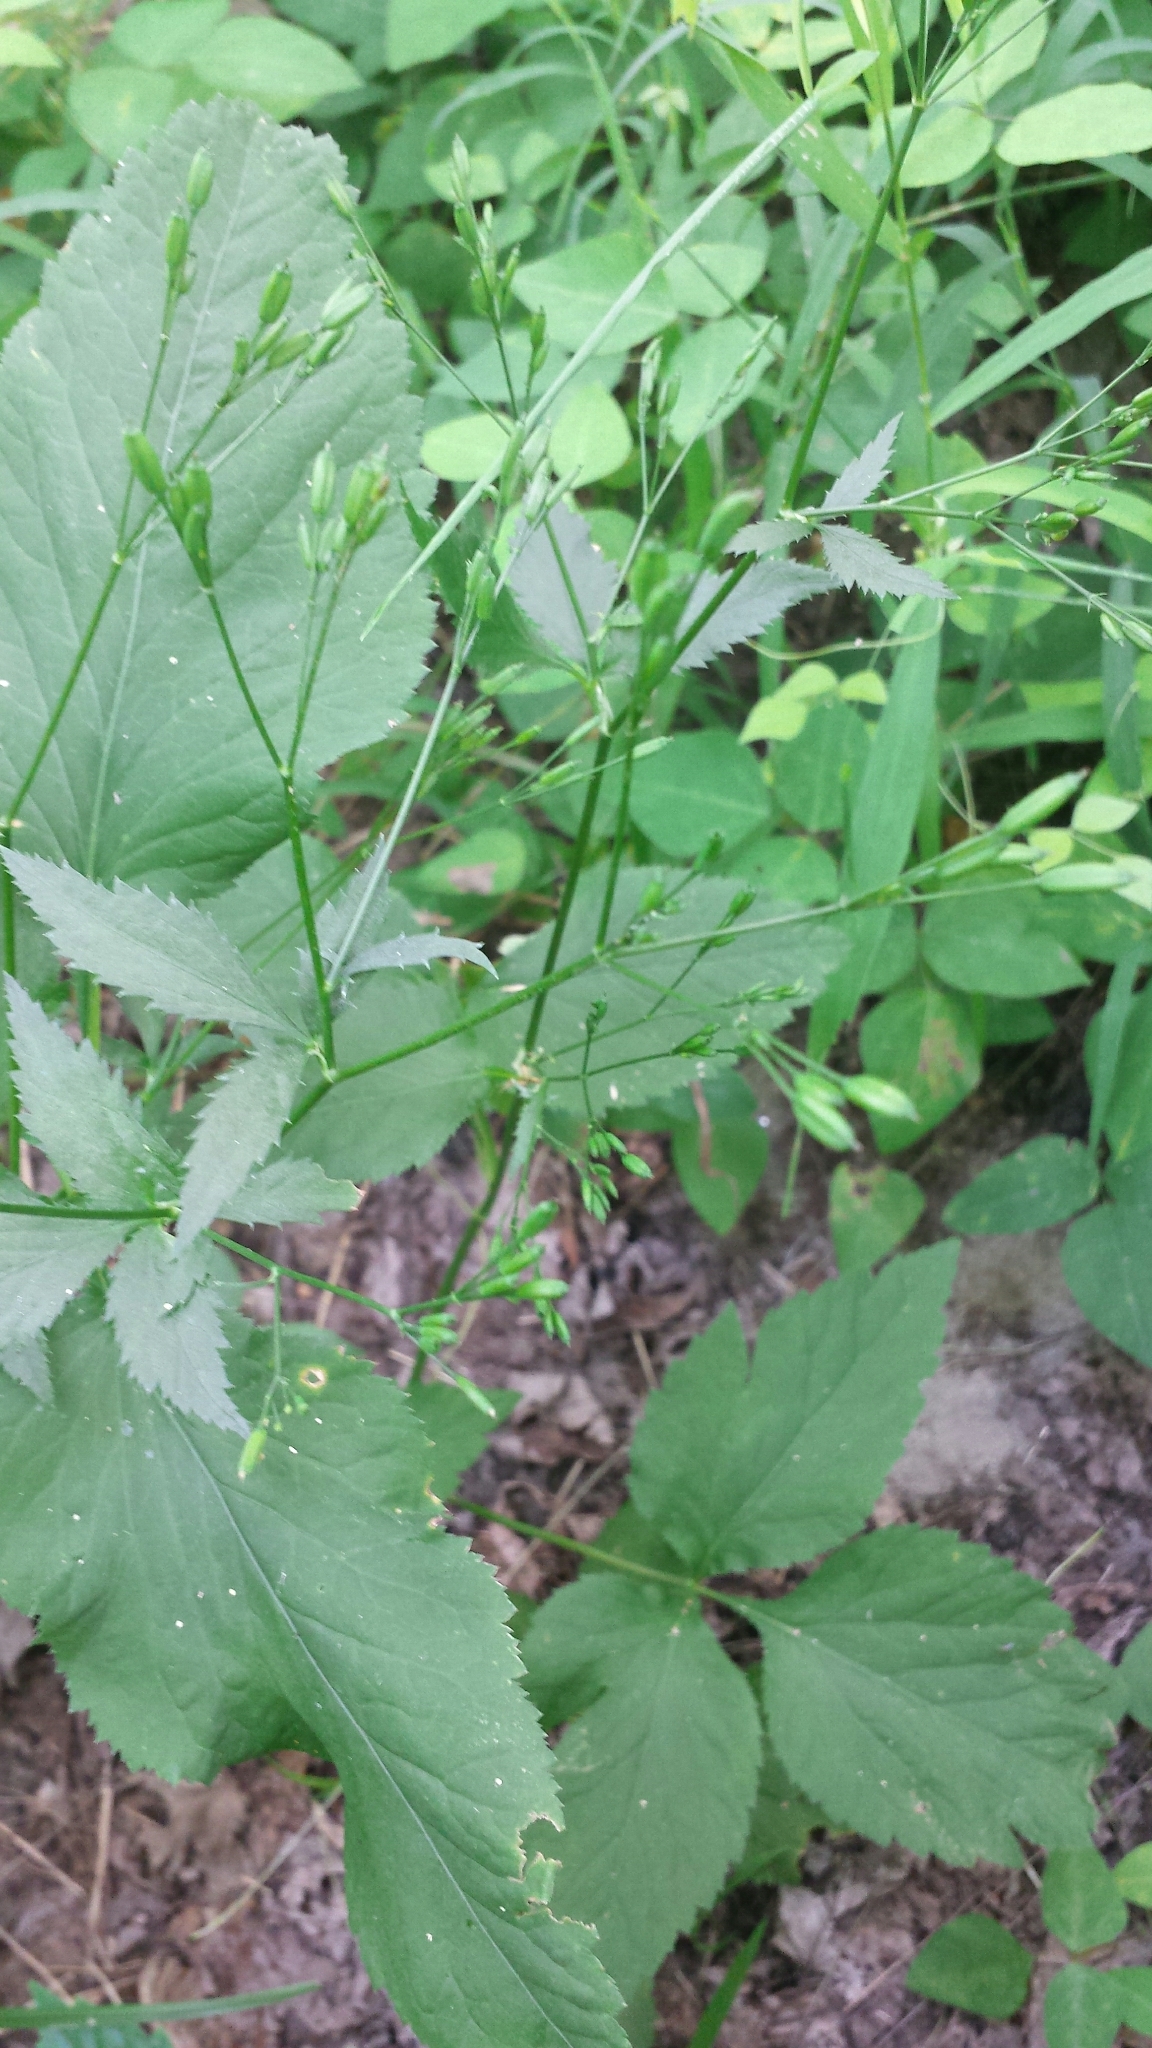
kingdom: Plantae
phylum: Tracheophyta
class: Magnoliopsida
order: Apiales
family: Apiaceae
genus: Cryptotaenia
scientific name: Cryptotaenia canadensis
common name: Honewort
